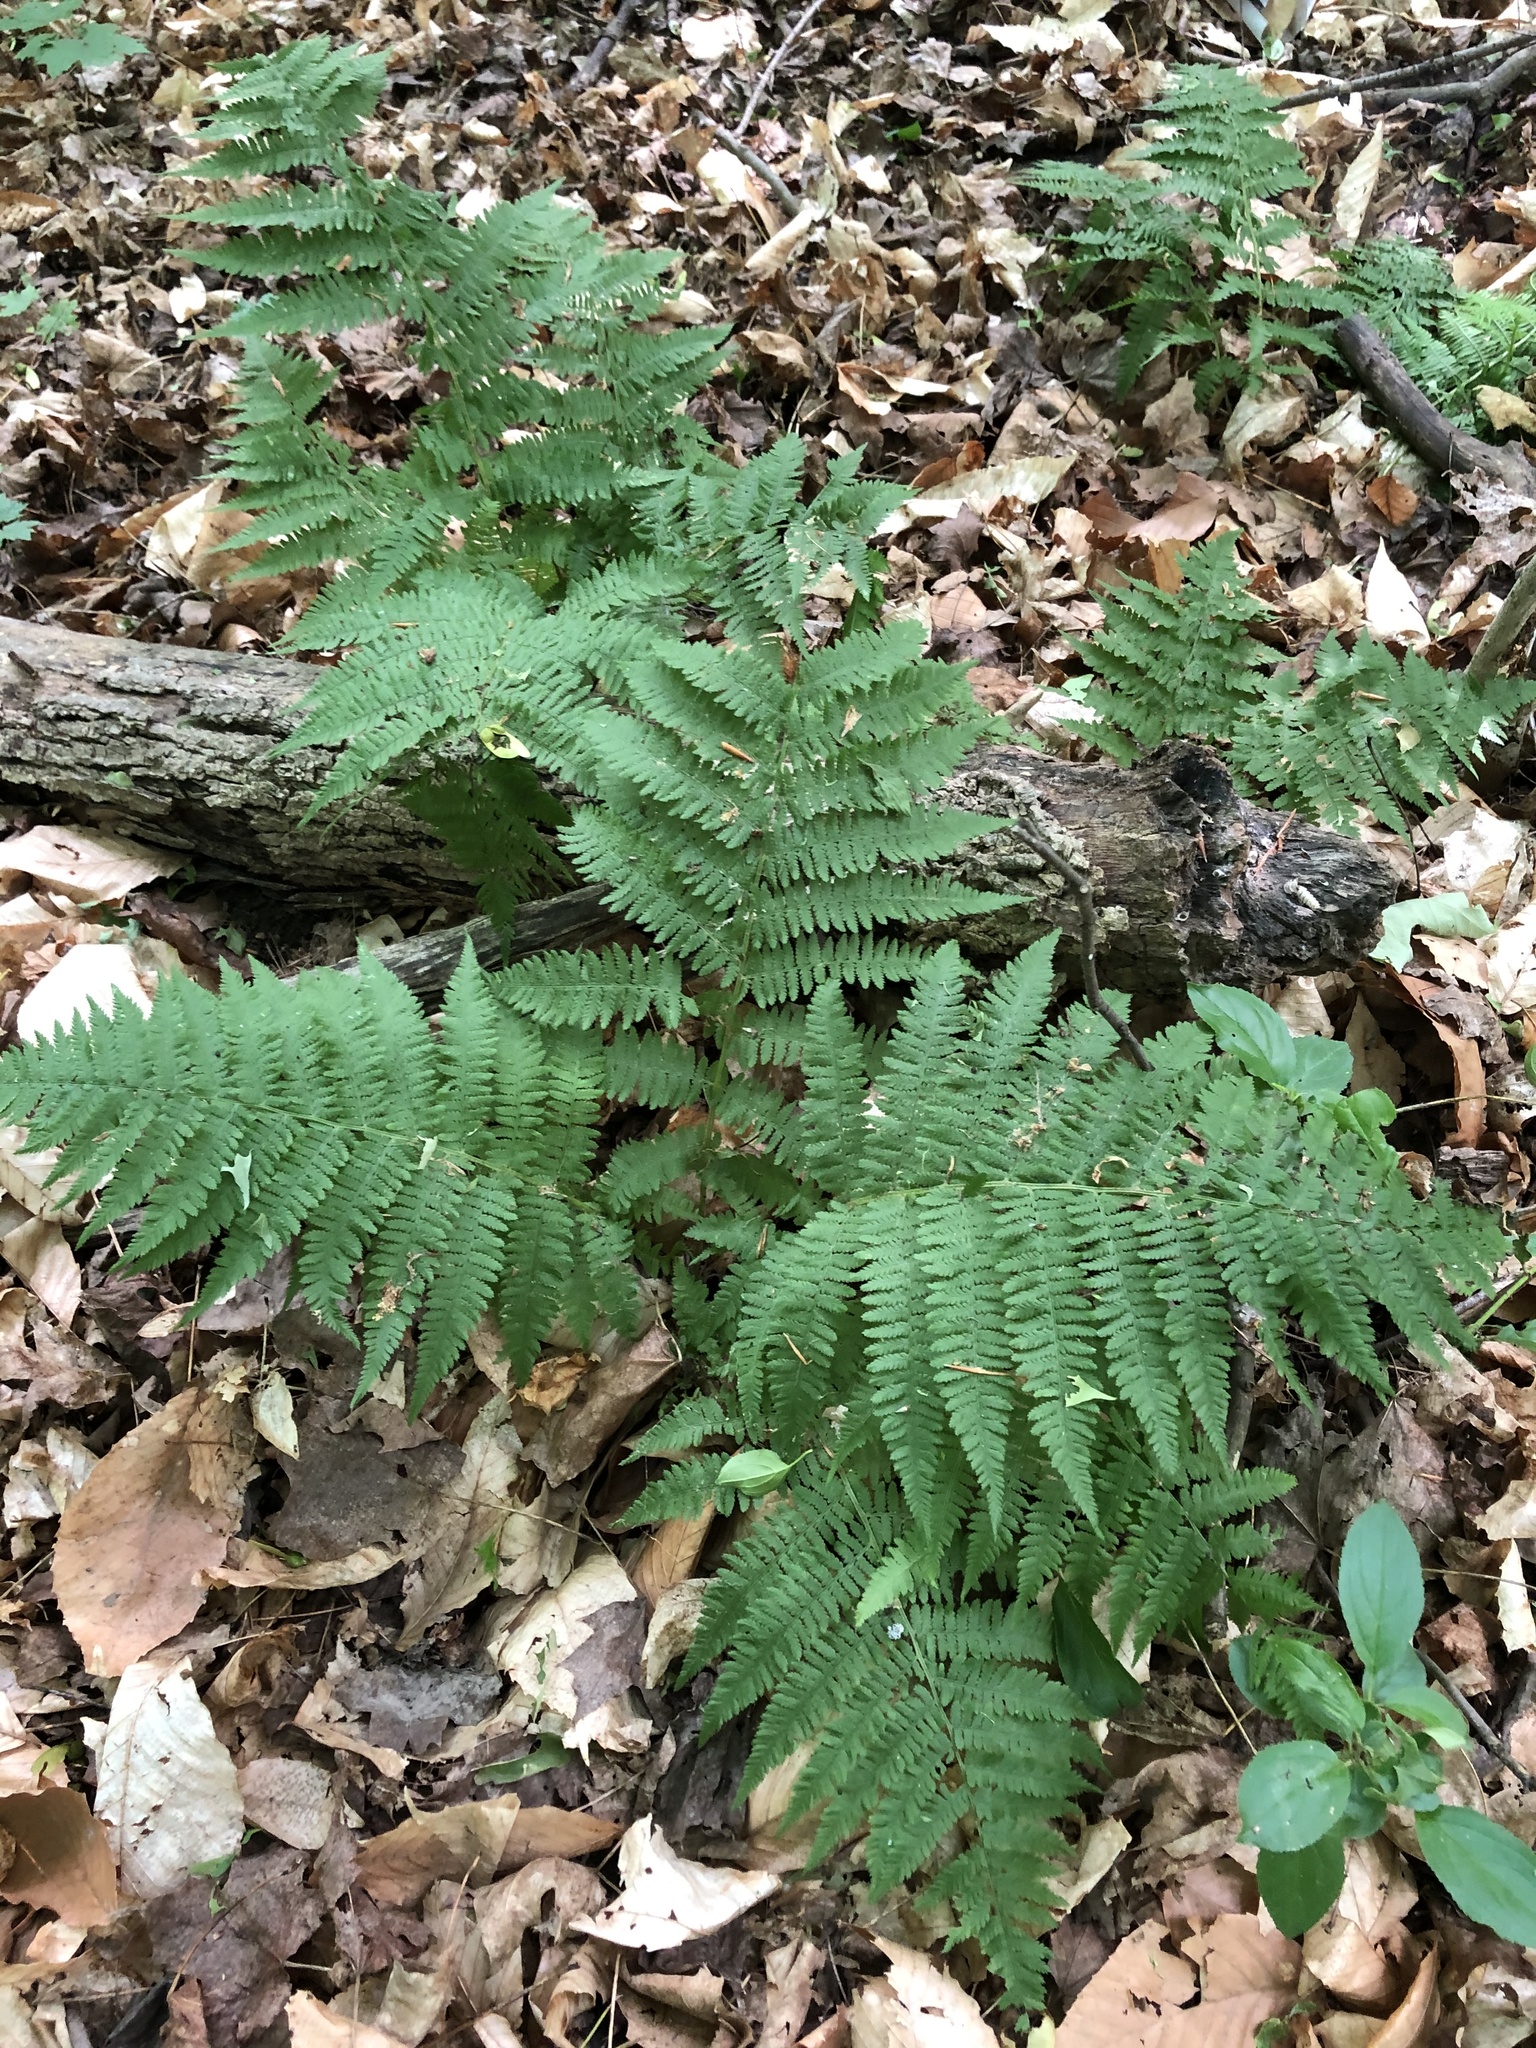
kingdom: Plantae
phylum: Tracheophyta
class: Polypodiopsida
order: Polypodiales
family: Athyriaceae
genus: Athyrium
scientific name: Athyrium angustum
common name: Northern lady fern
